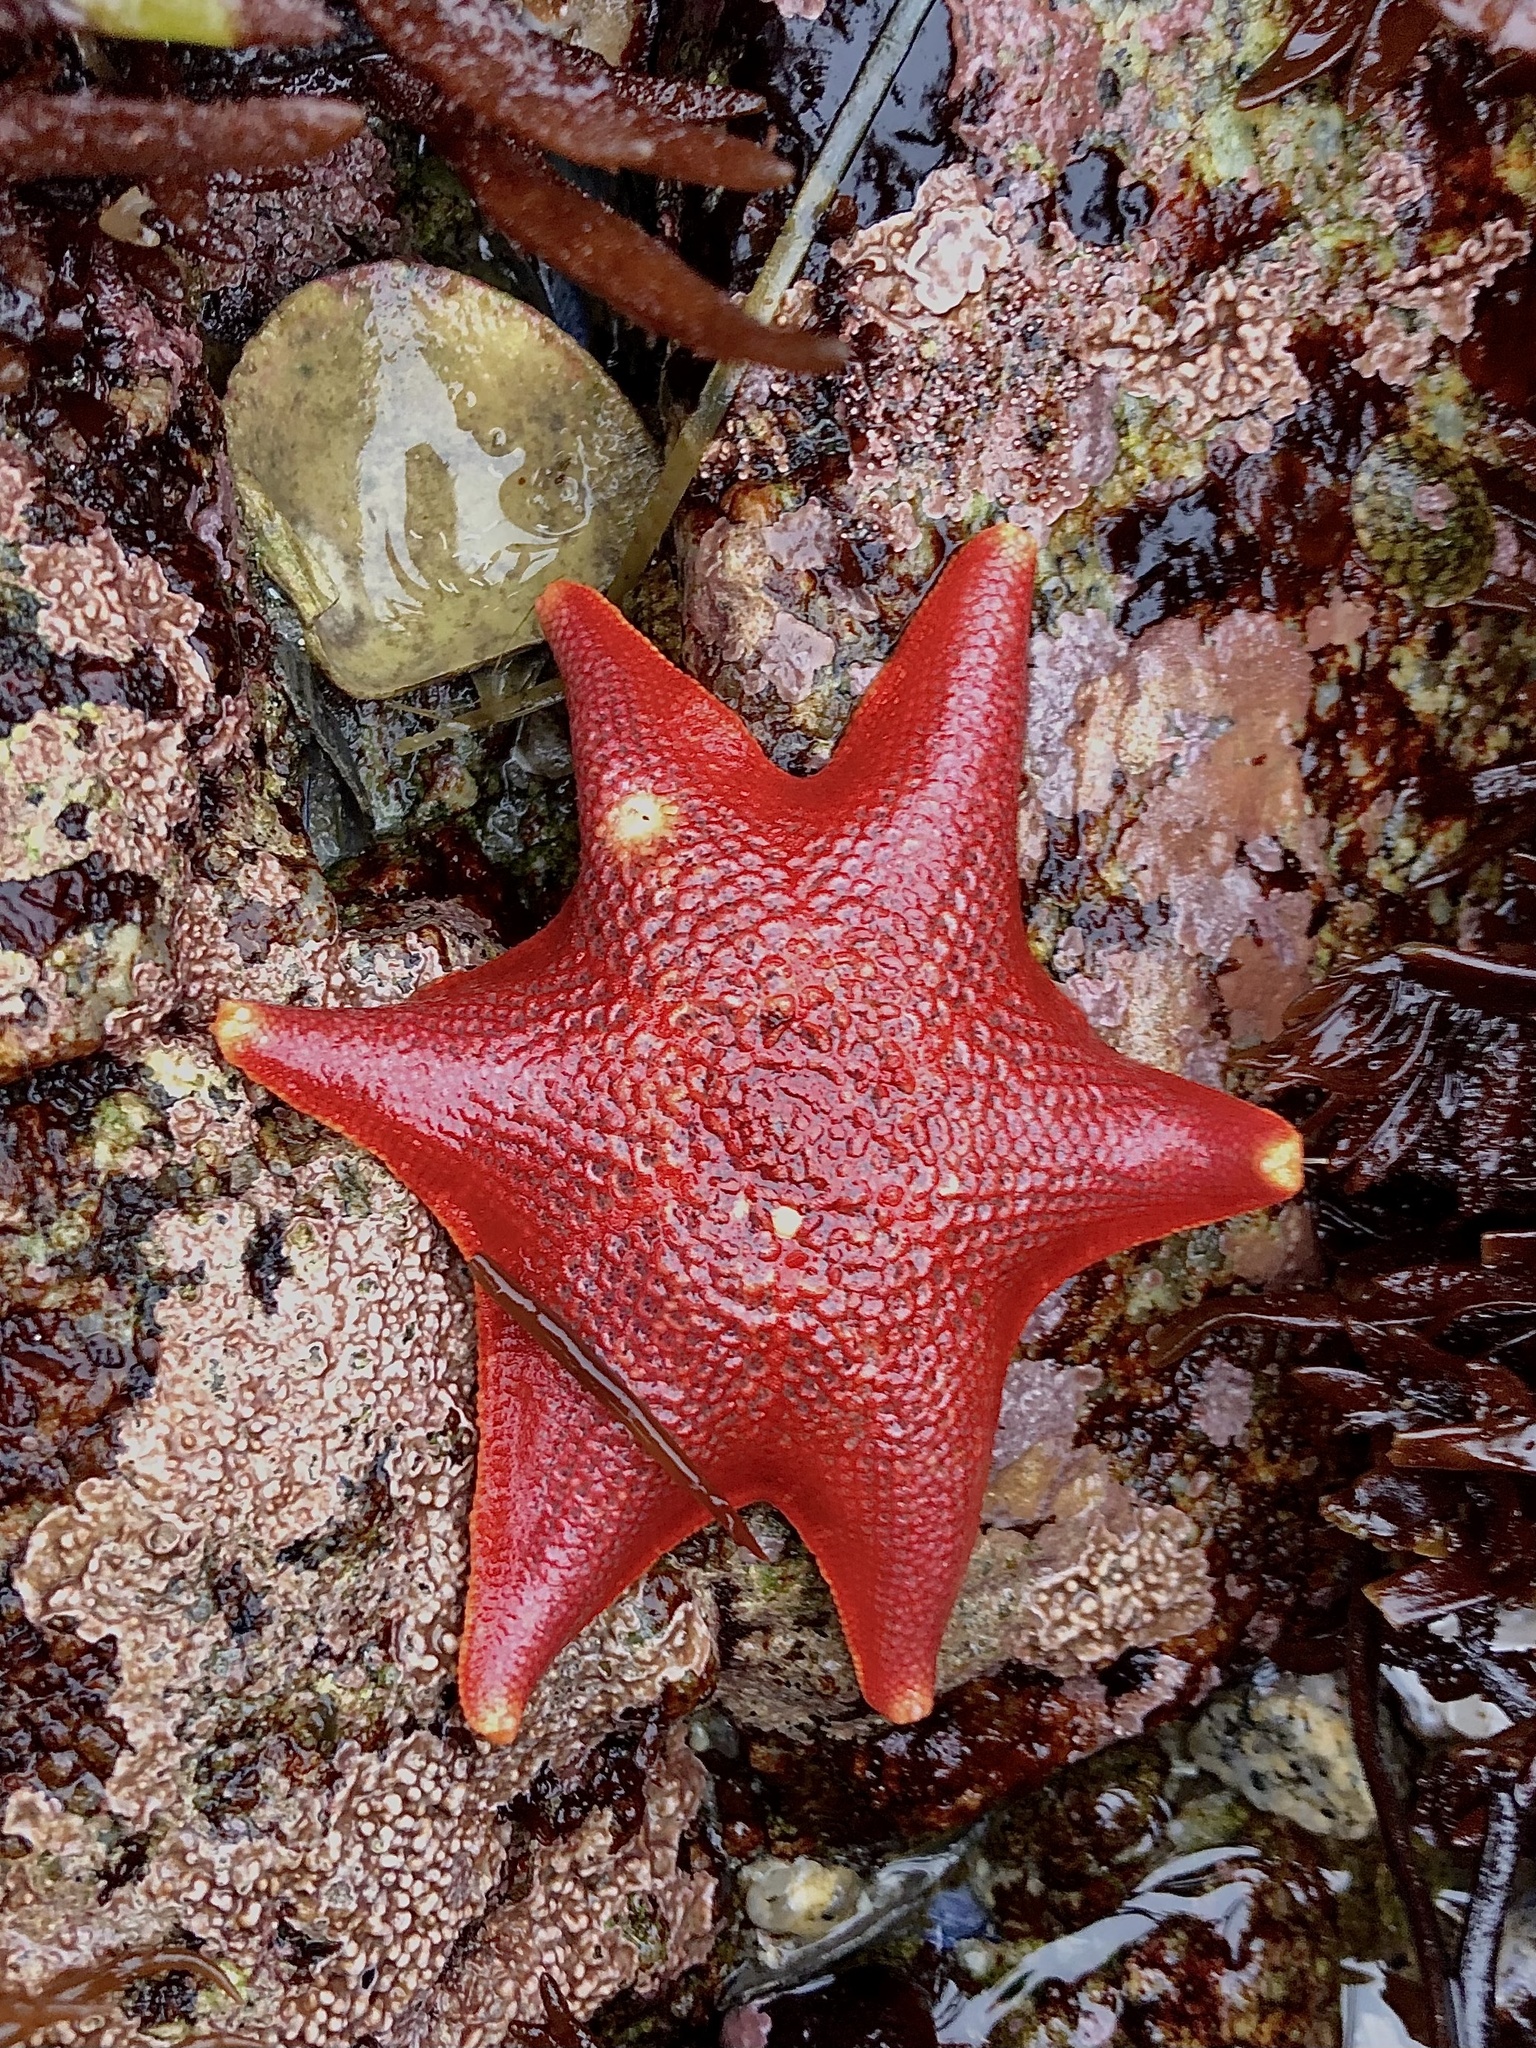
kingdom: Animalia
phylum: Echinodermata
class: Asteroidea
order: Valvatida
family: Asterinidae
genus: Patiria
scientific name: Patiria miniata
